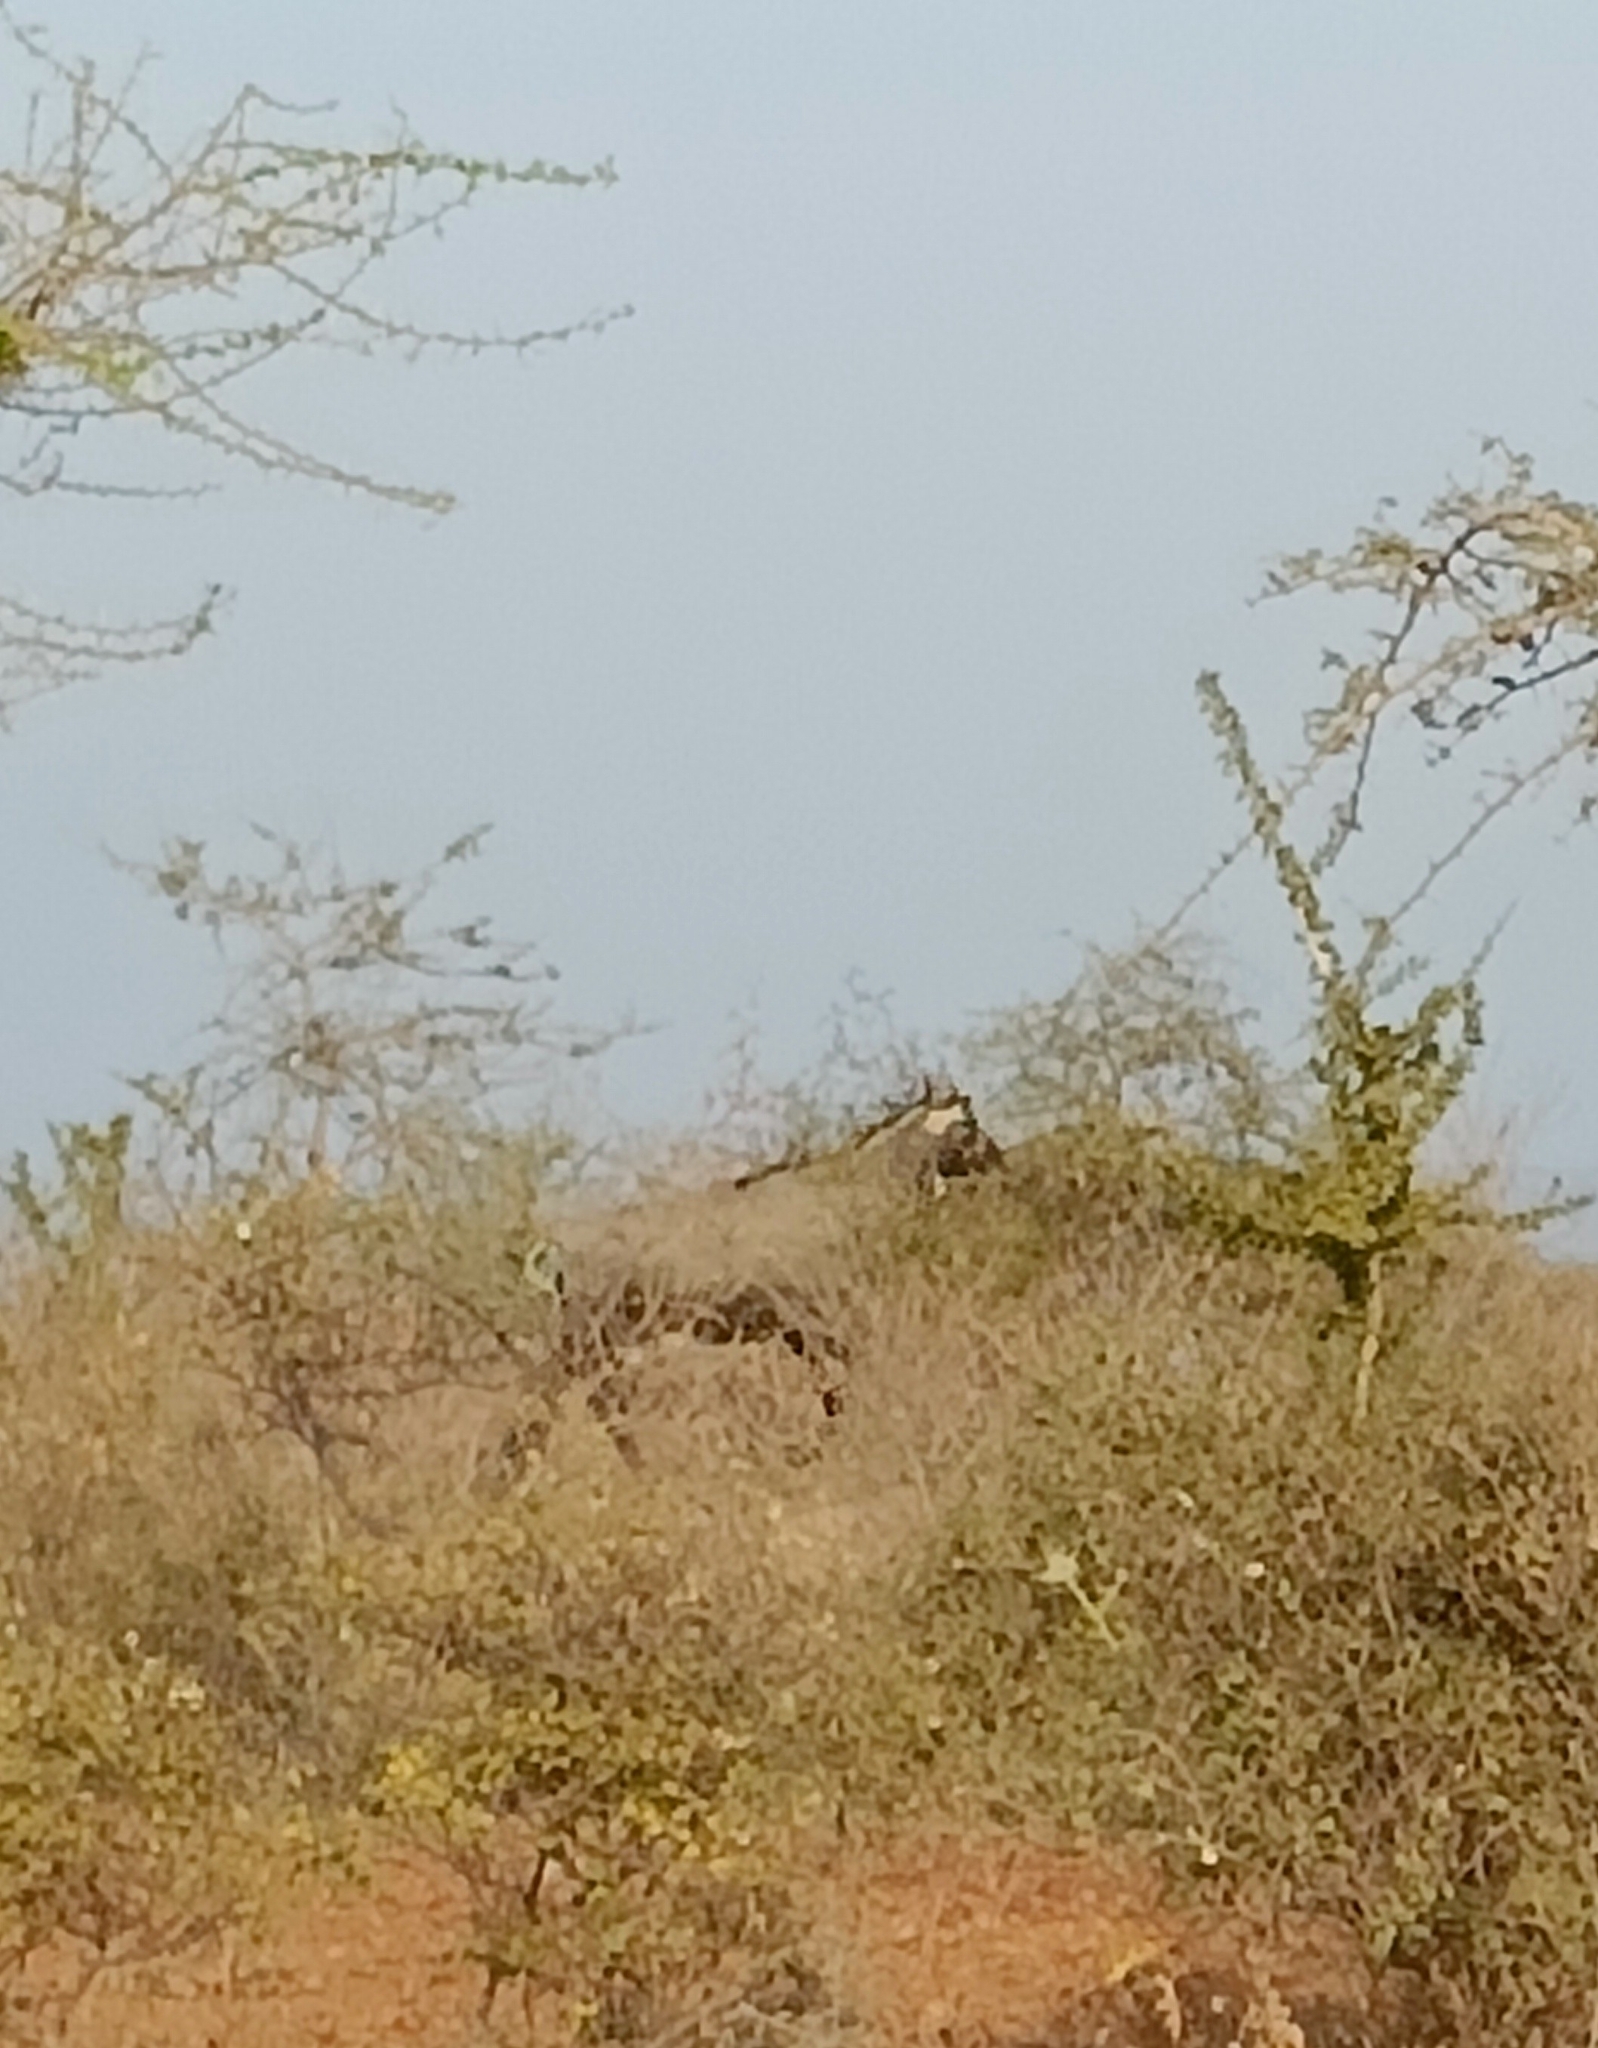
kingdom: Animalia
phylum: Chordata
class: Mammalia
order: Artiodactyla
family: Bovidae
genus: Boselaphus
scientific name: Boselaphus tragocamelus
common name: Nilgai
